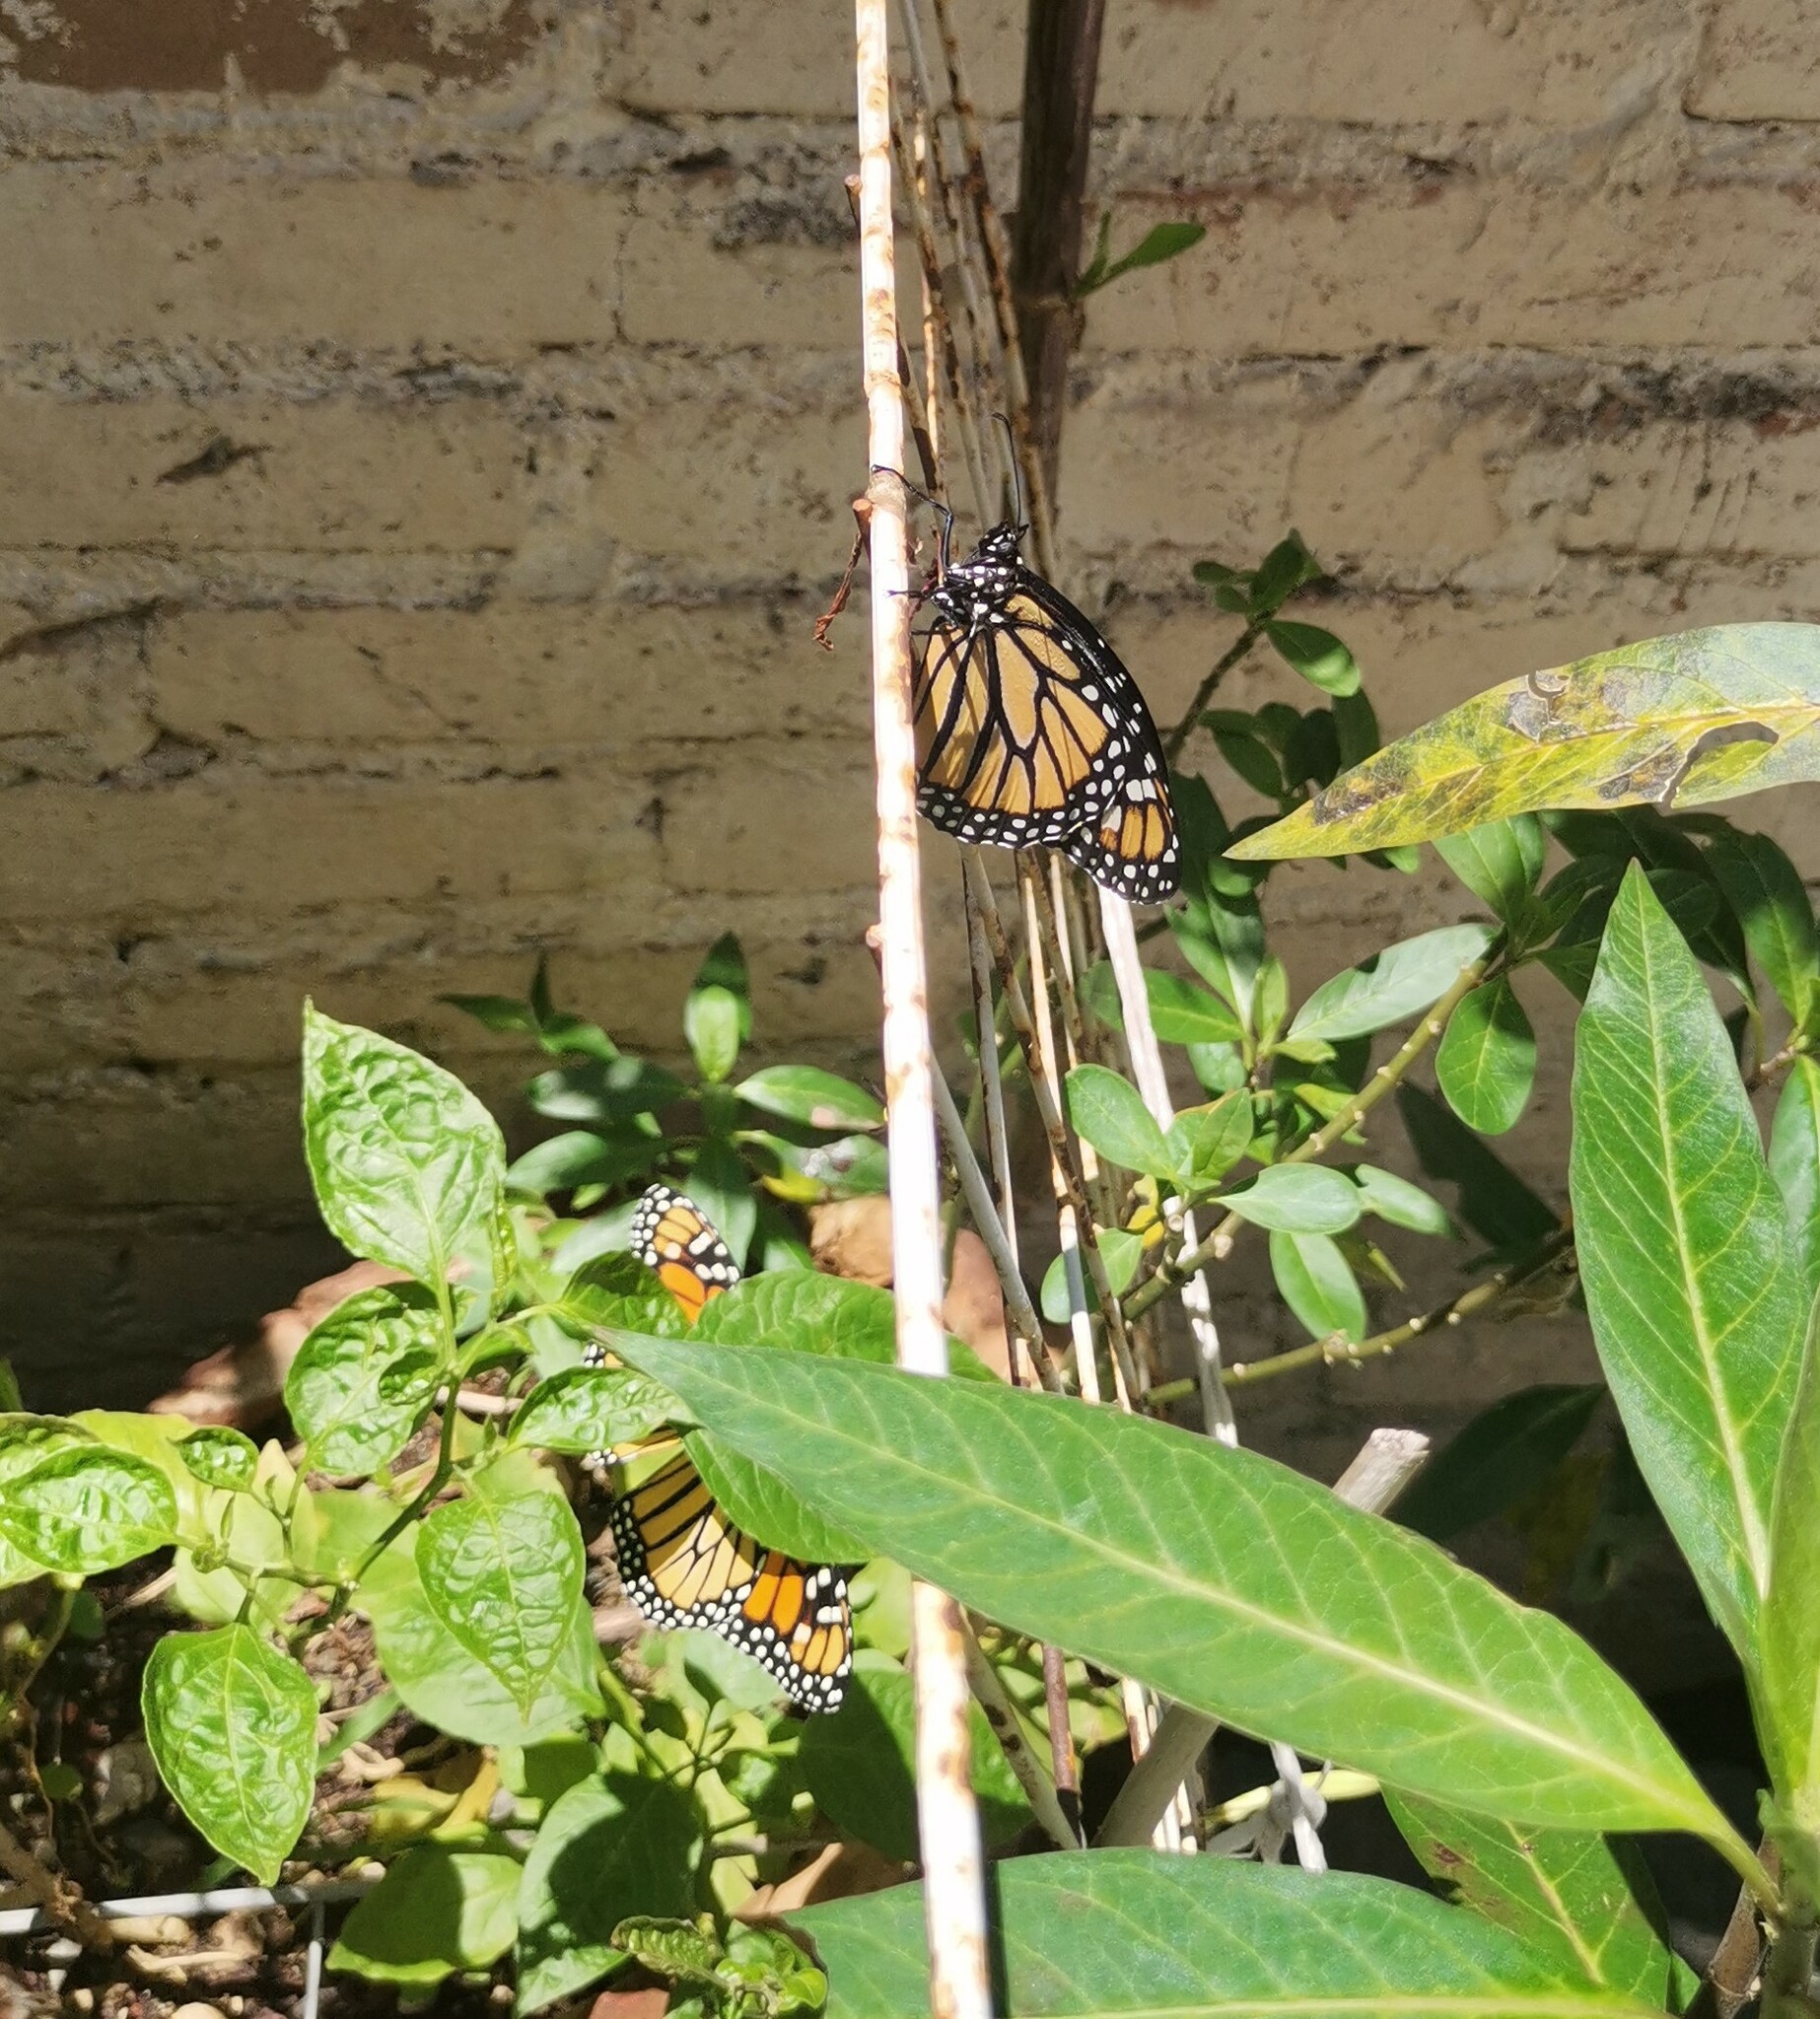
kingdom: Animalia
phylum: Arthropoda
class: Insecta
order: Lepidoptera
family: Nymphalidae
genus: Danaus
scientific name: Danaus plexippus
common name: Monarch
